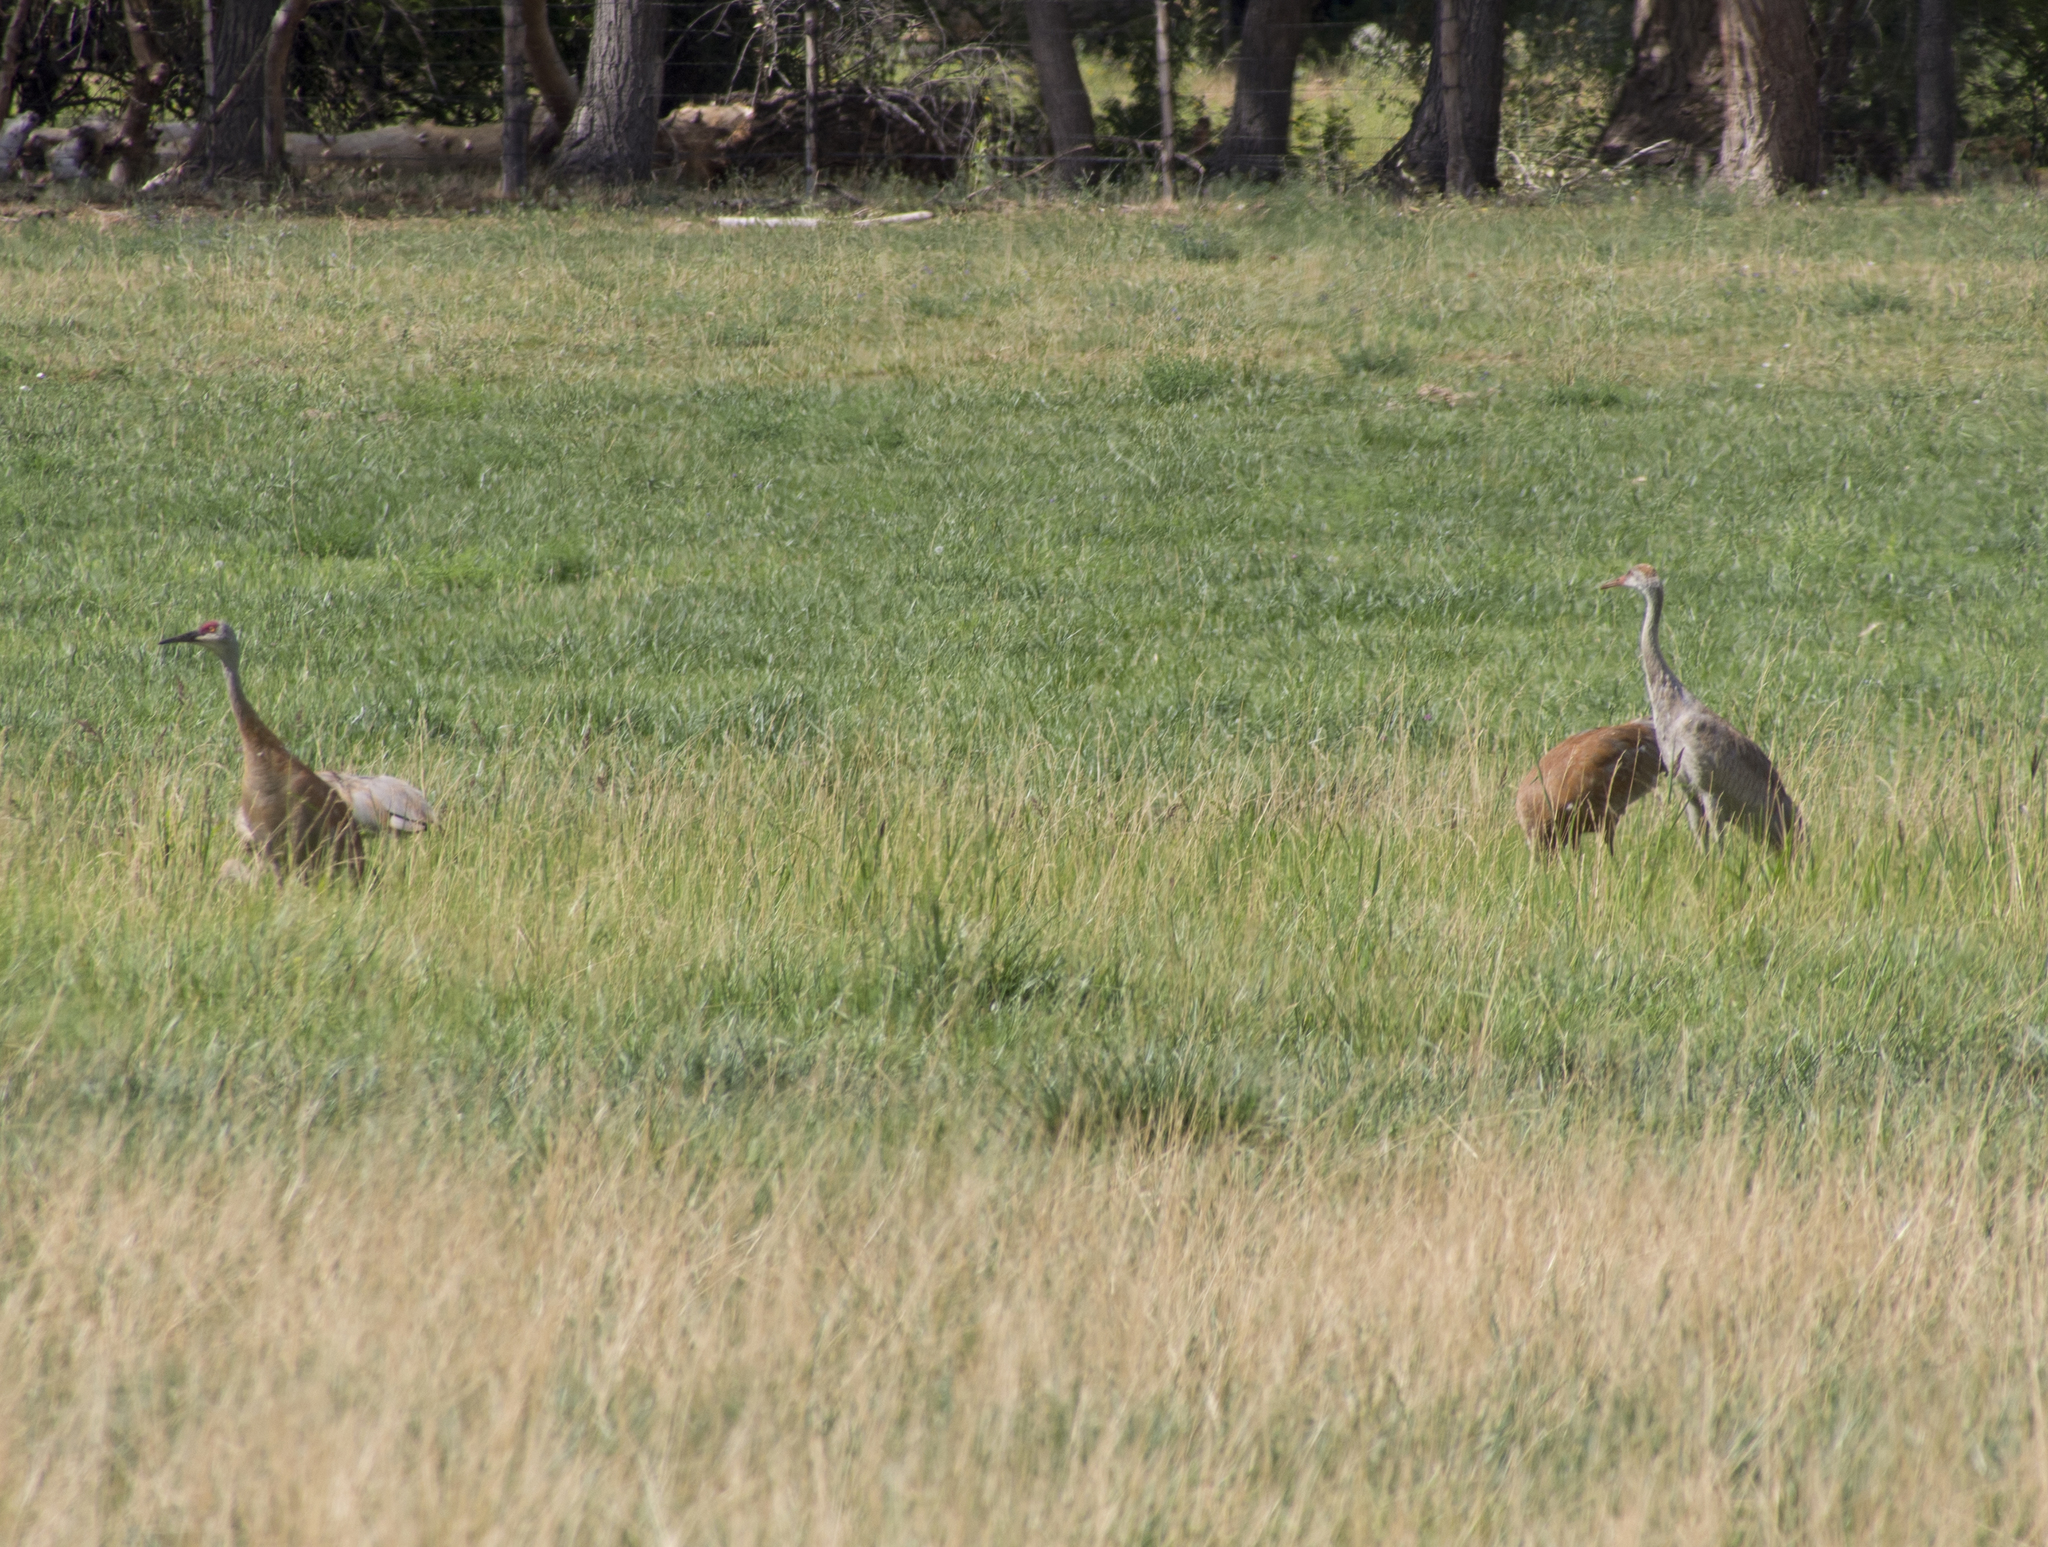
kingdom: Animalia
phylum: Chordata
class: Aves
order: Gruiformes
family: Gruidae
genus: Grus
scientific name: Grus canadensis
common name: Sandhill crane
